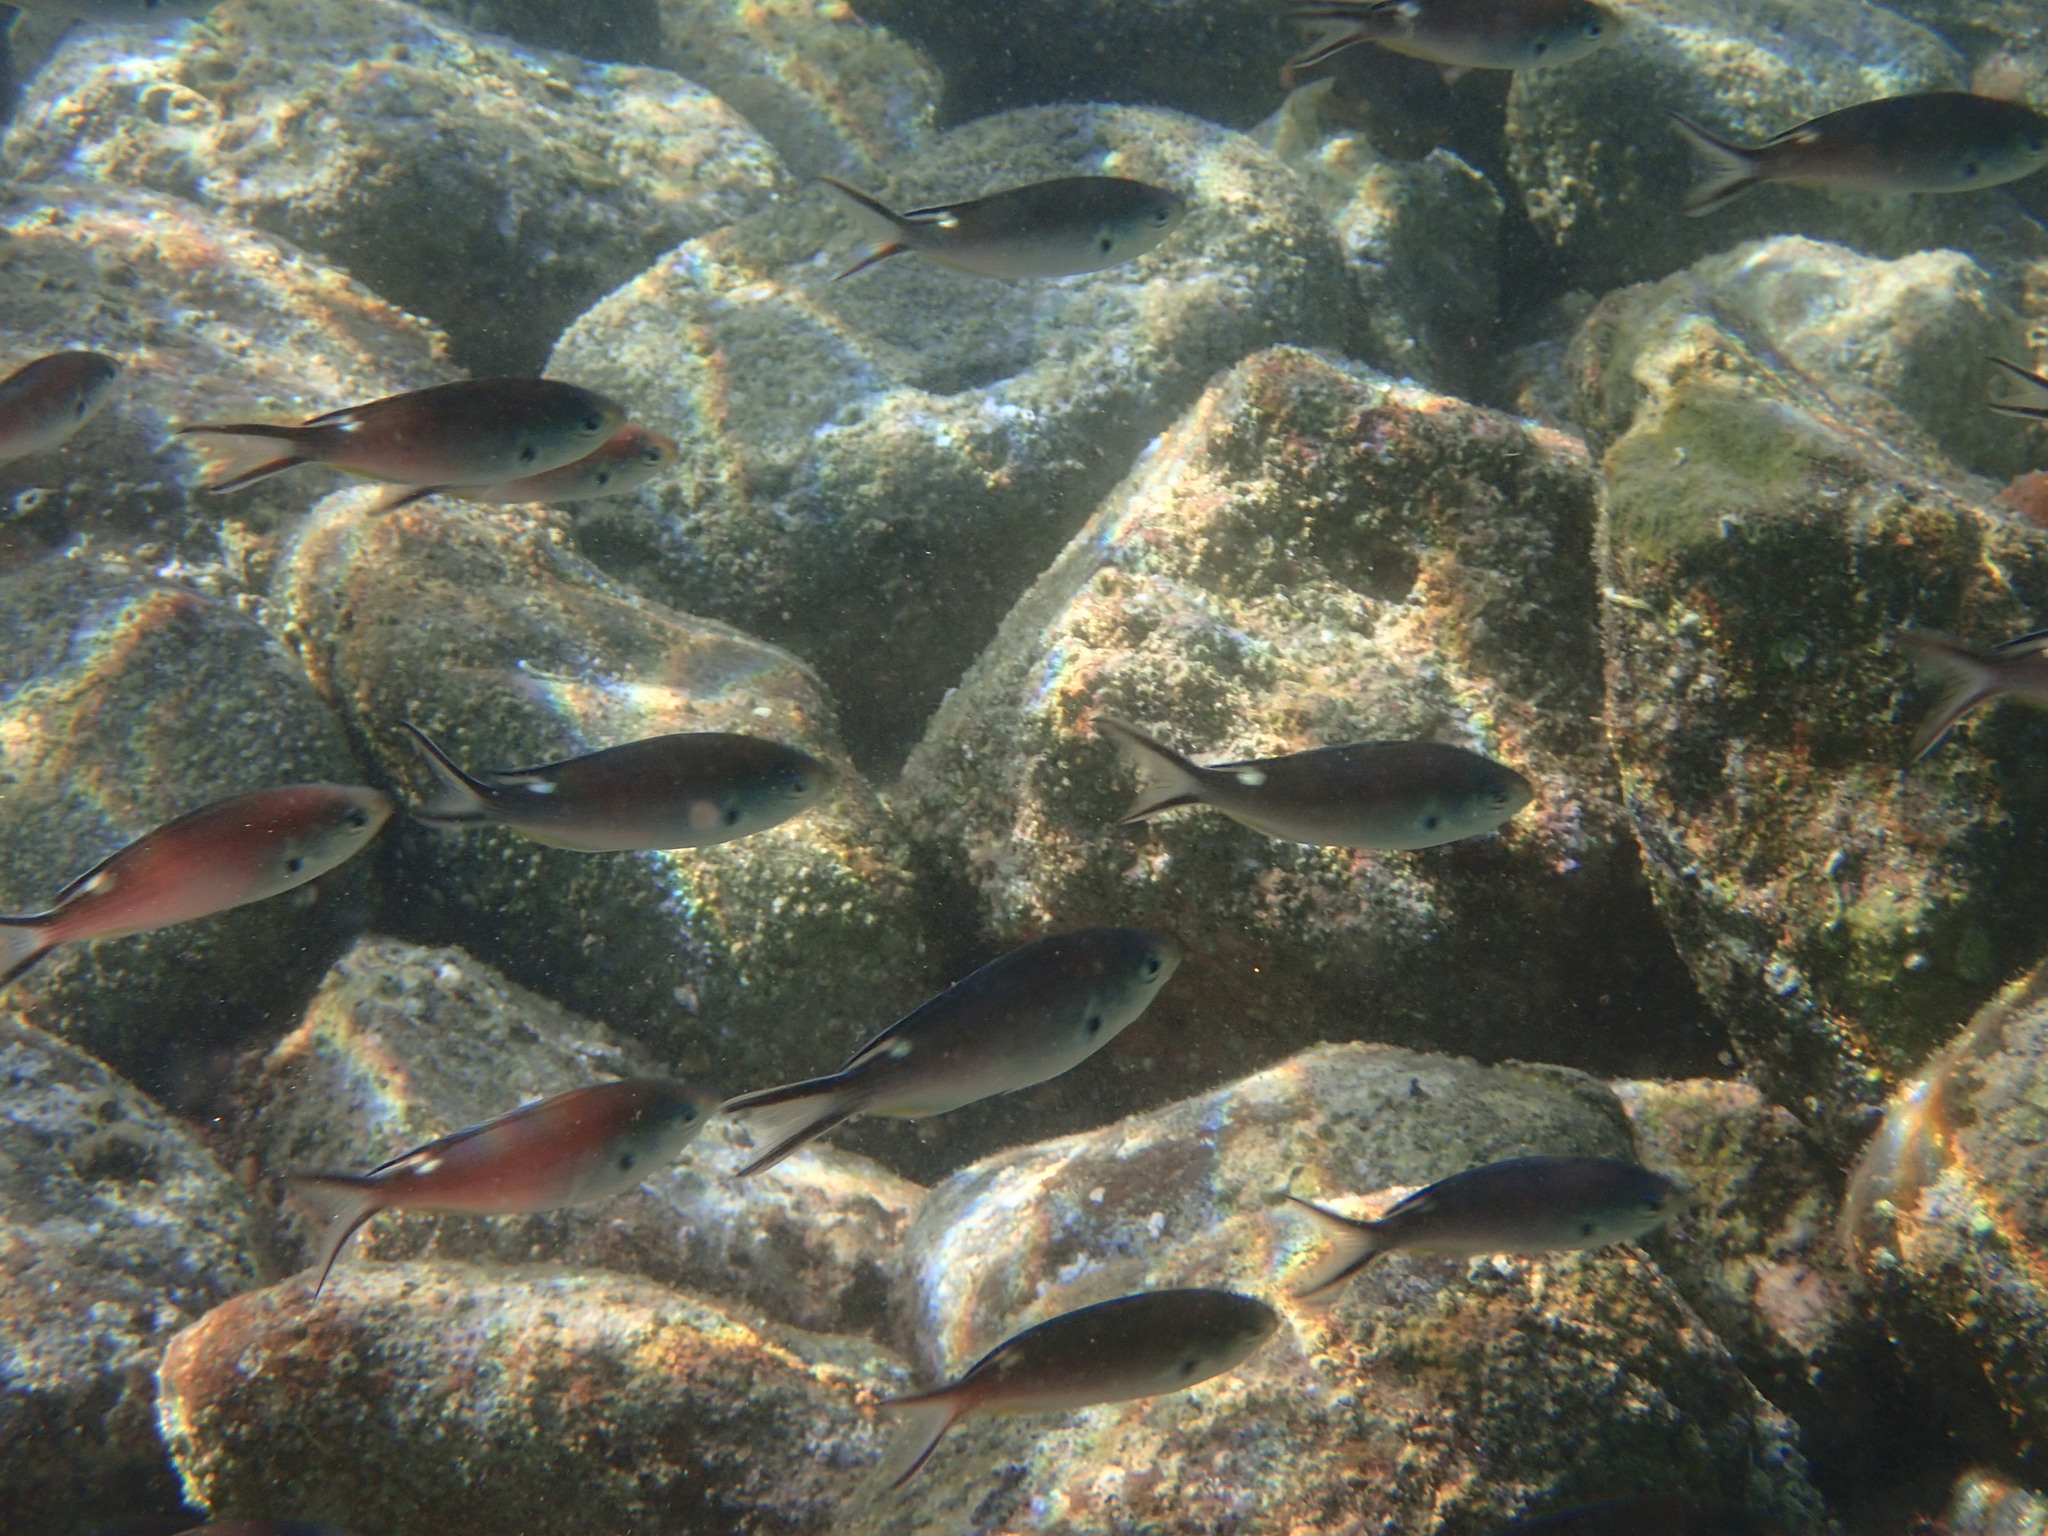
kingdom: Animalia
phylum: Chordata
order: Perciformes
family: Pomacentridae
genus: Chromis
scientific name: Chromis atrilobata
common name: Scissortail damselfish
